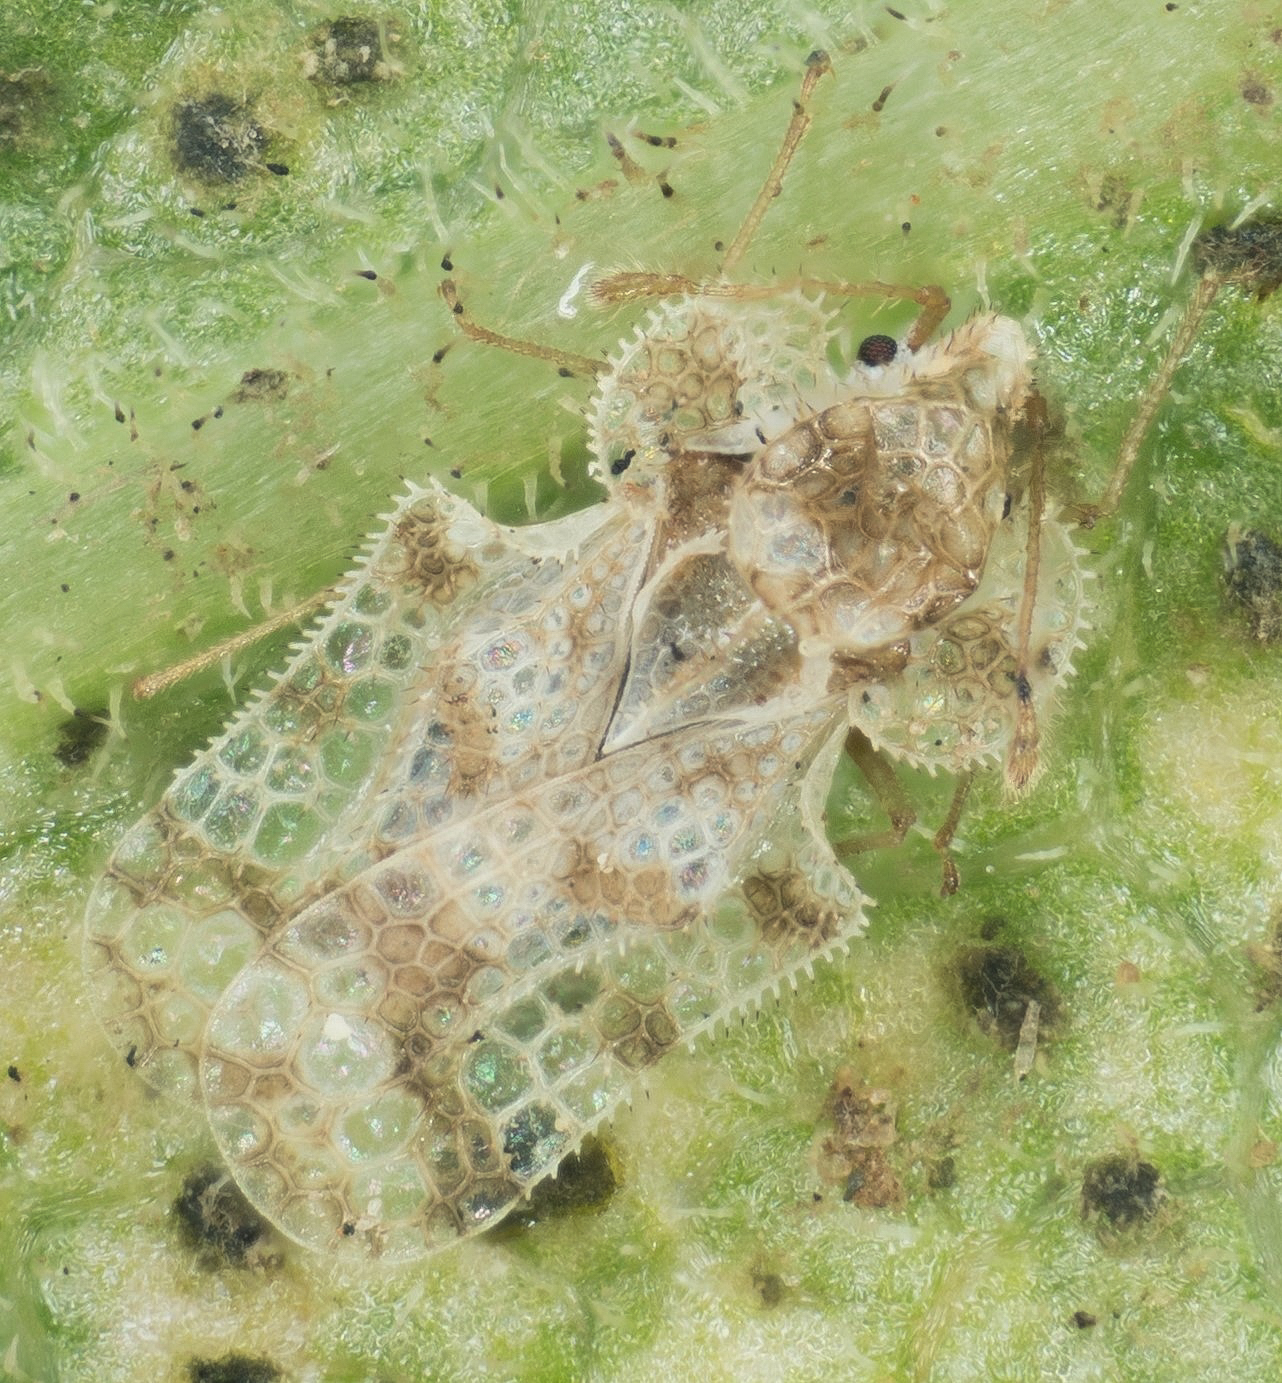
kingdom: Animalia
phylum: Arthropoda
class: Insecta
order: Hemiptera
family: Tingidae
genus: Corythucha
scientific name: Corythucha morrilli
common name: Morrill lace bug
